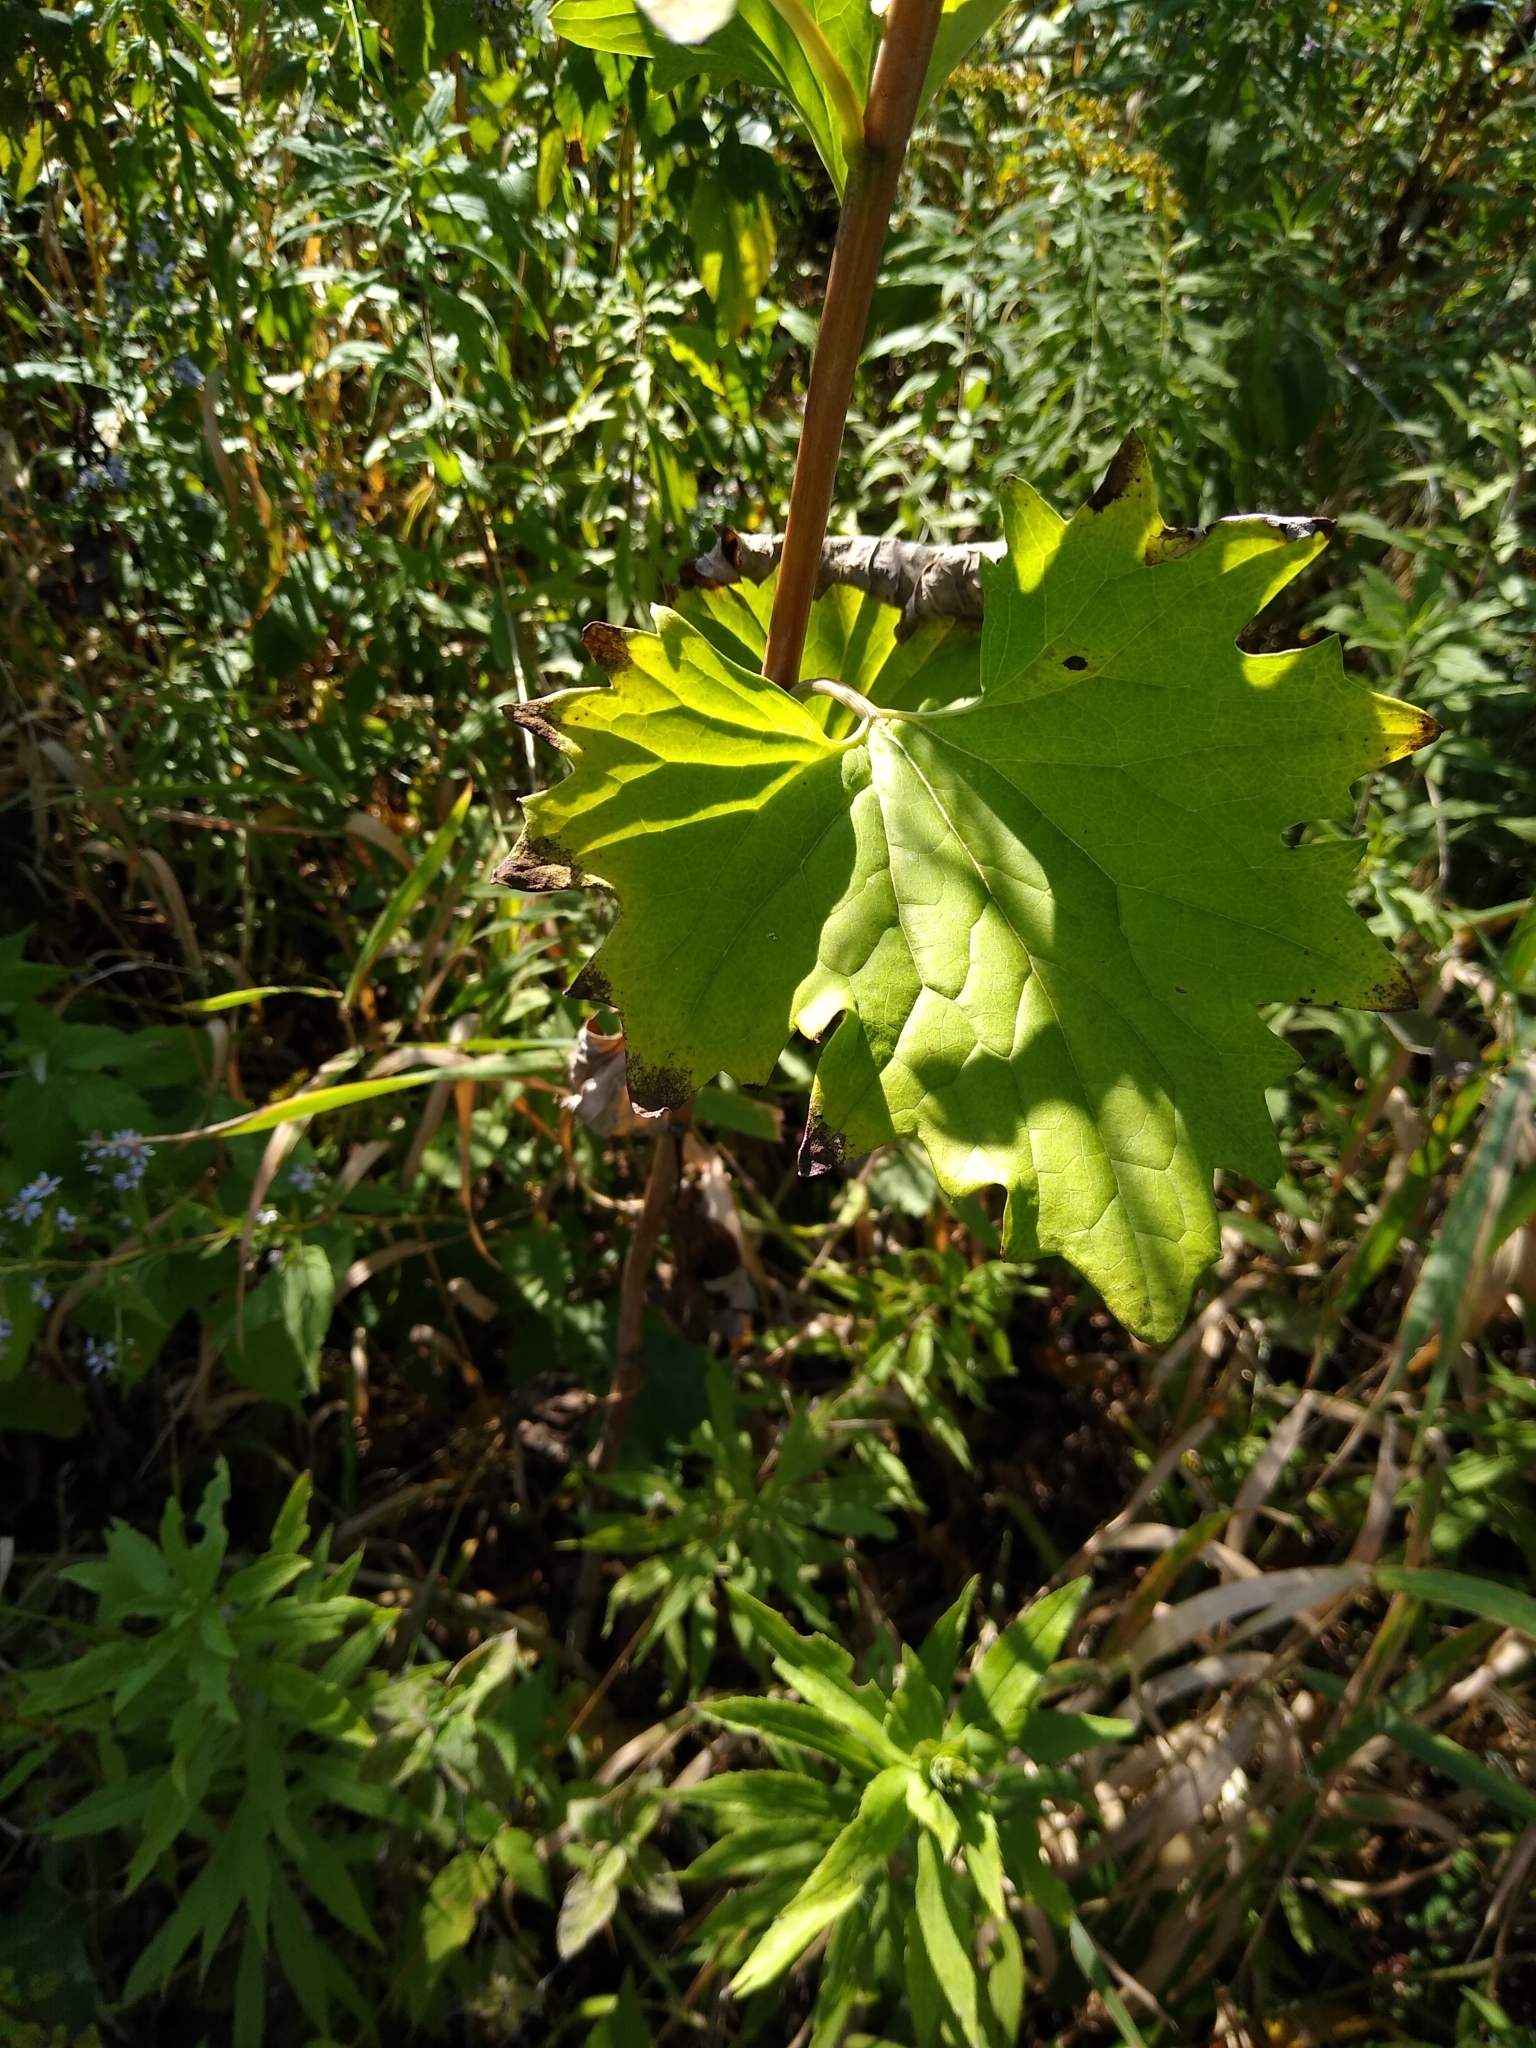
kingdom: Plantae
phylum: Tracheophyta
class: Magnoliopsida
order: Asterales
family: Asteraceae
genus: Arnoglossum
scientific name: Arnoglossum atriplicifolium
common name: Pale indian-plantain
